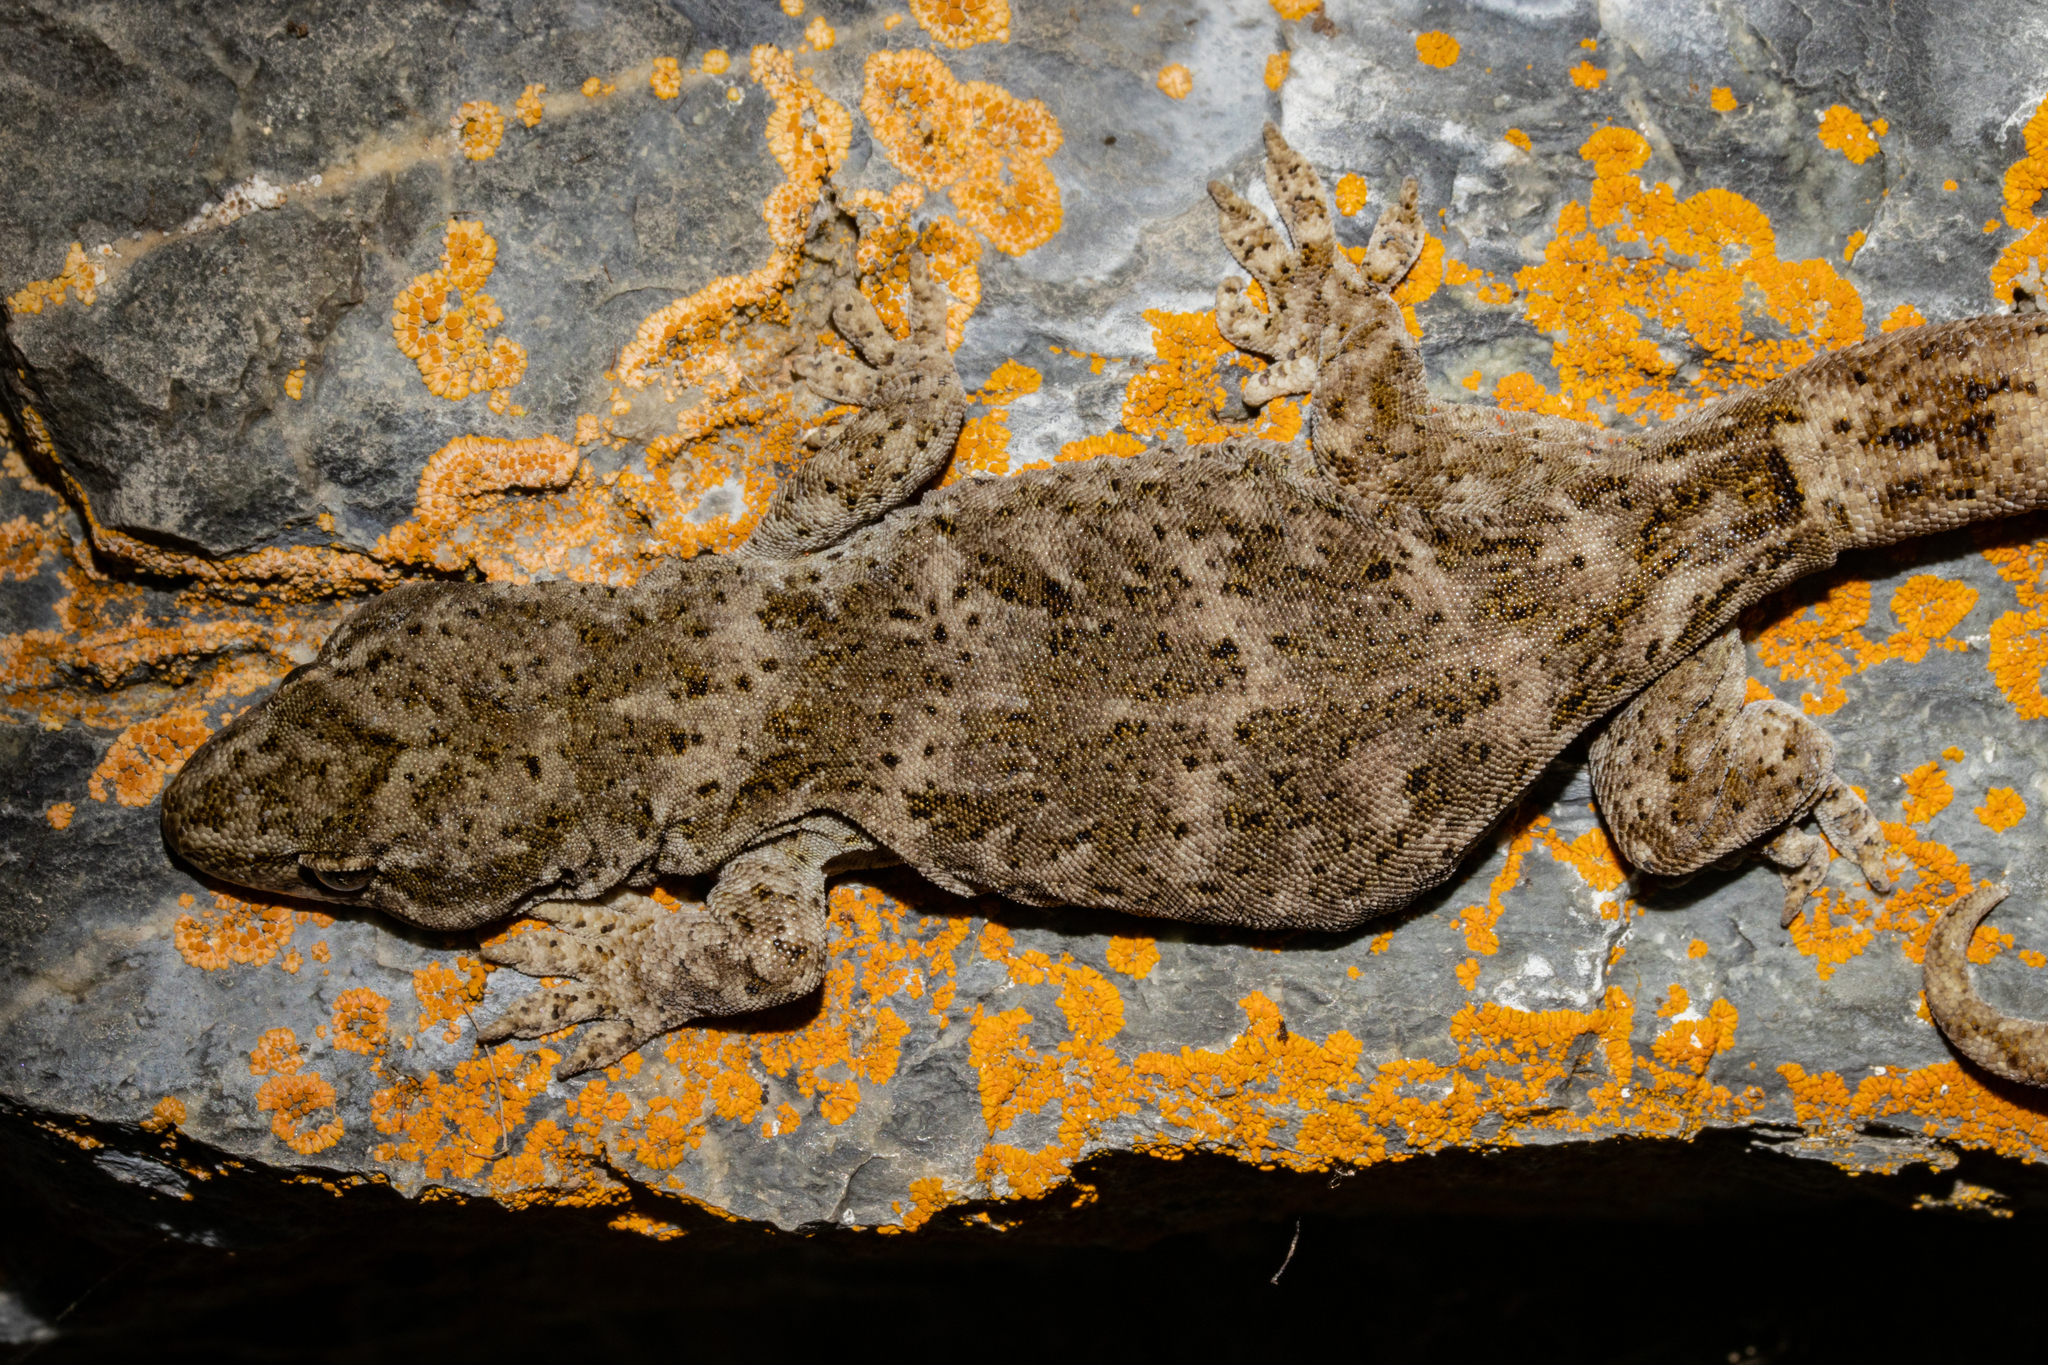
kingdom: Animalia
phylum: Chordata
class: Squamata
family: Diplodactylidae
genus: Woodworthia
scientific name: Woodworthia
